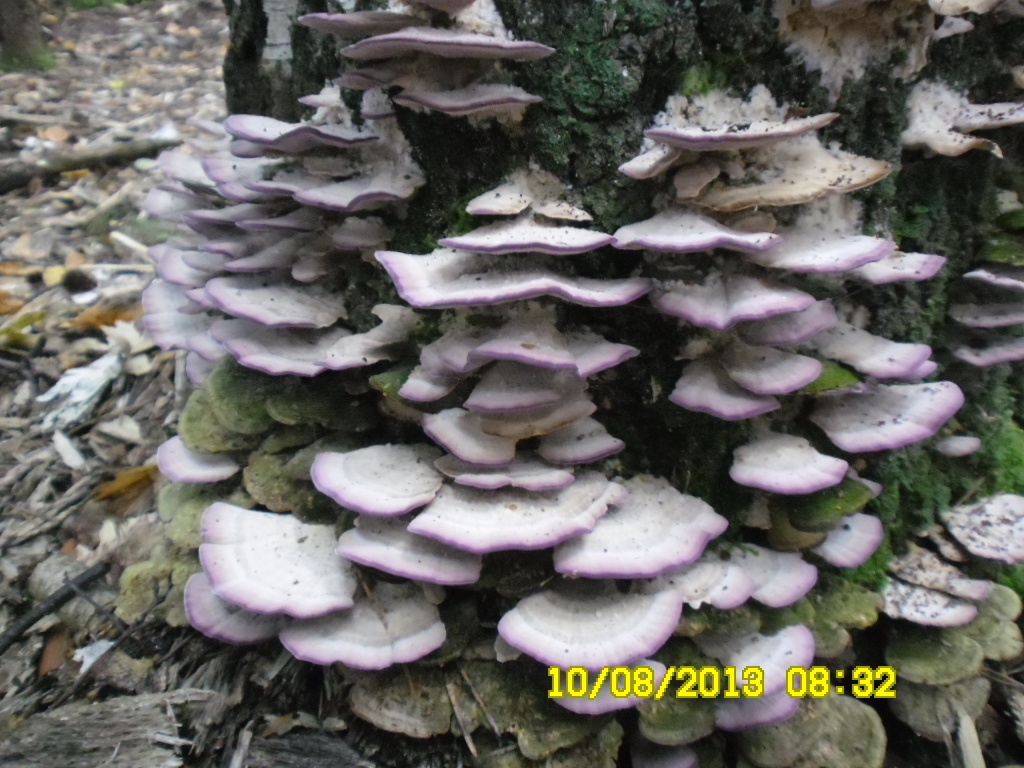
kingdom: Fungi
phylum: Basidiomycota
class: Agaricomycetes
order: Hymenochaetales
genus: Trichaptum
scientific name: Trichaptum biforme
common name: Violet-toothed polypore
